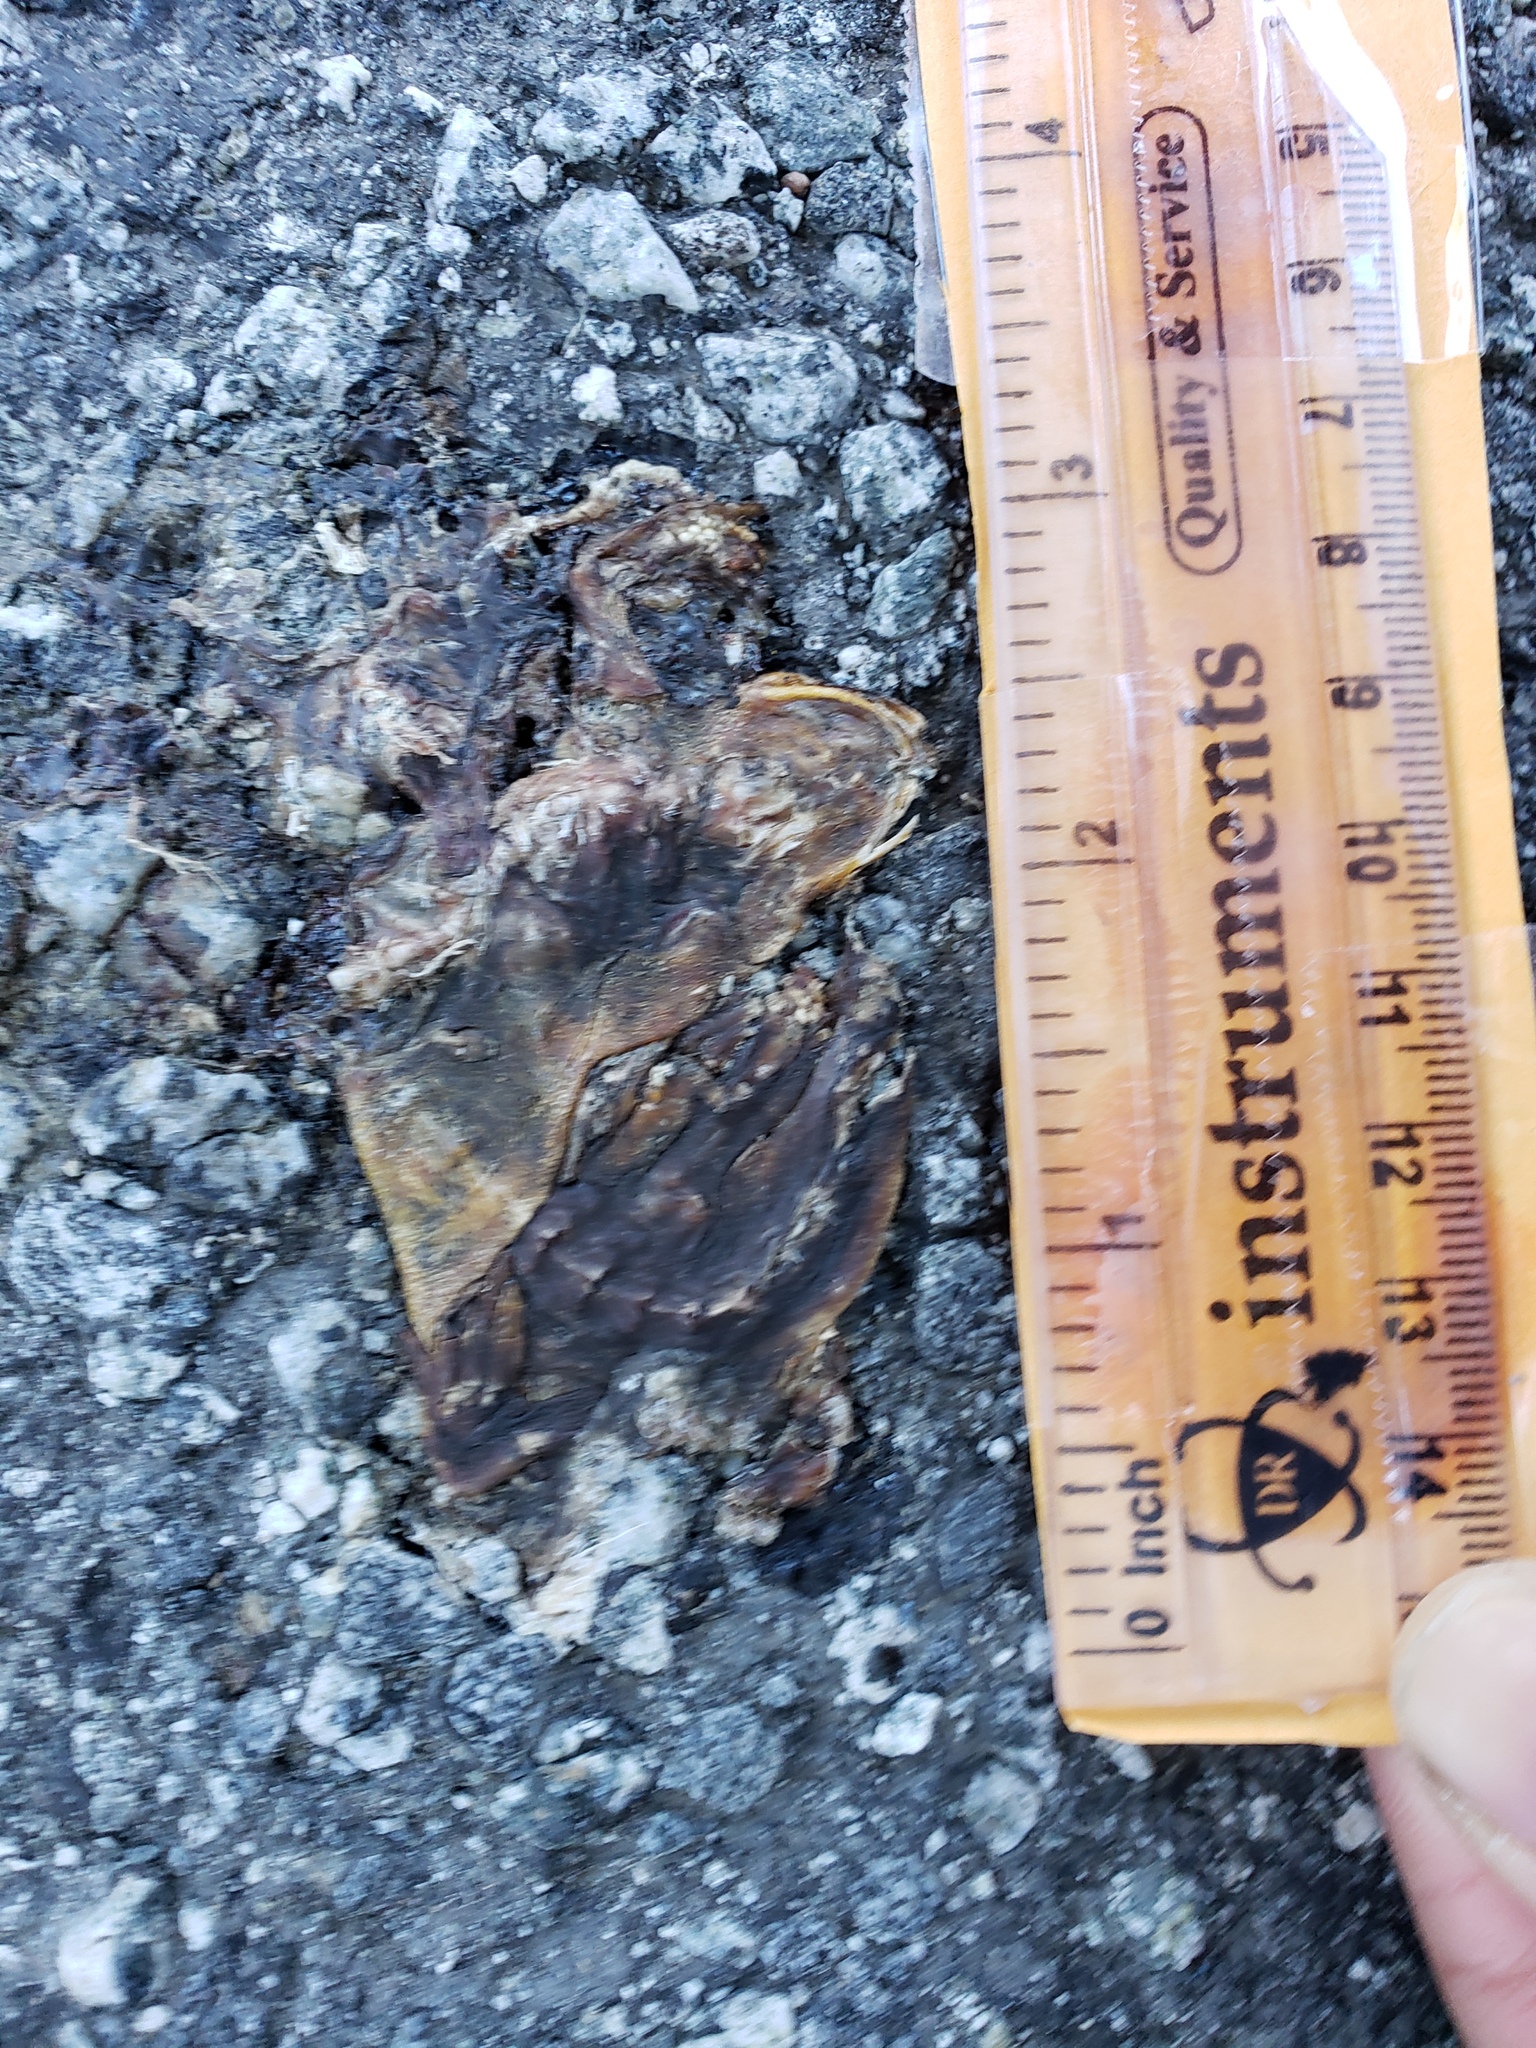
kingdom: Animalia
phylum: Chordata
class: Amphibia
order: Caudata
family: Salamandridae
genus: Taricha
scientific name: Taricha
